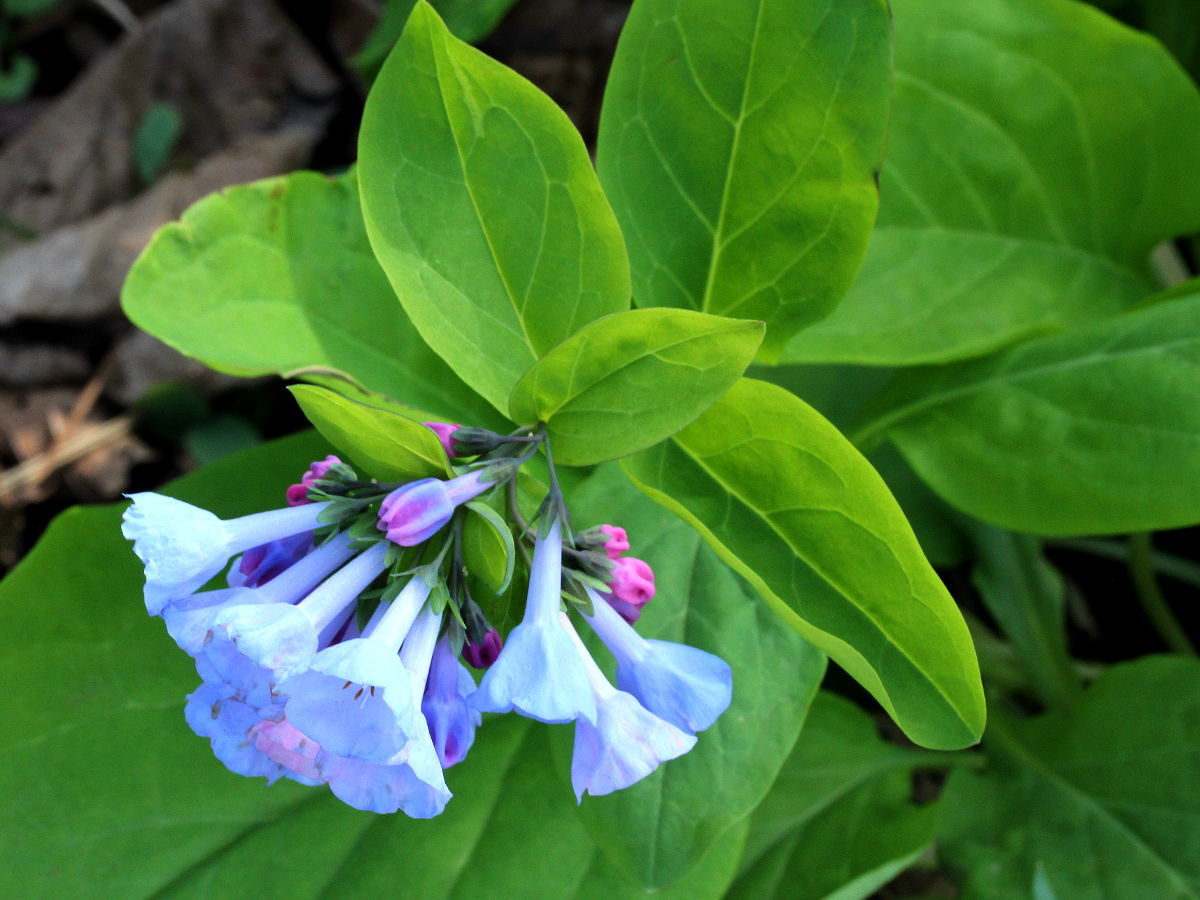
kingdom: Plantae
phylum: Tracheophyta
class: Magnoliopsida
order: Boraginales
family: Boraginaceae
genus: Mertensia
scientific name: Mertensia virginica
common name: Virginia bluebells
